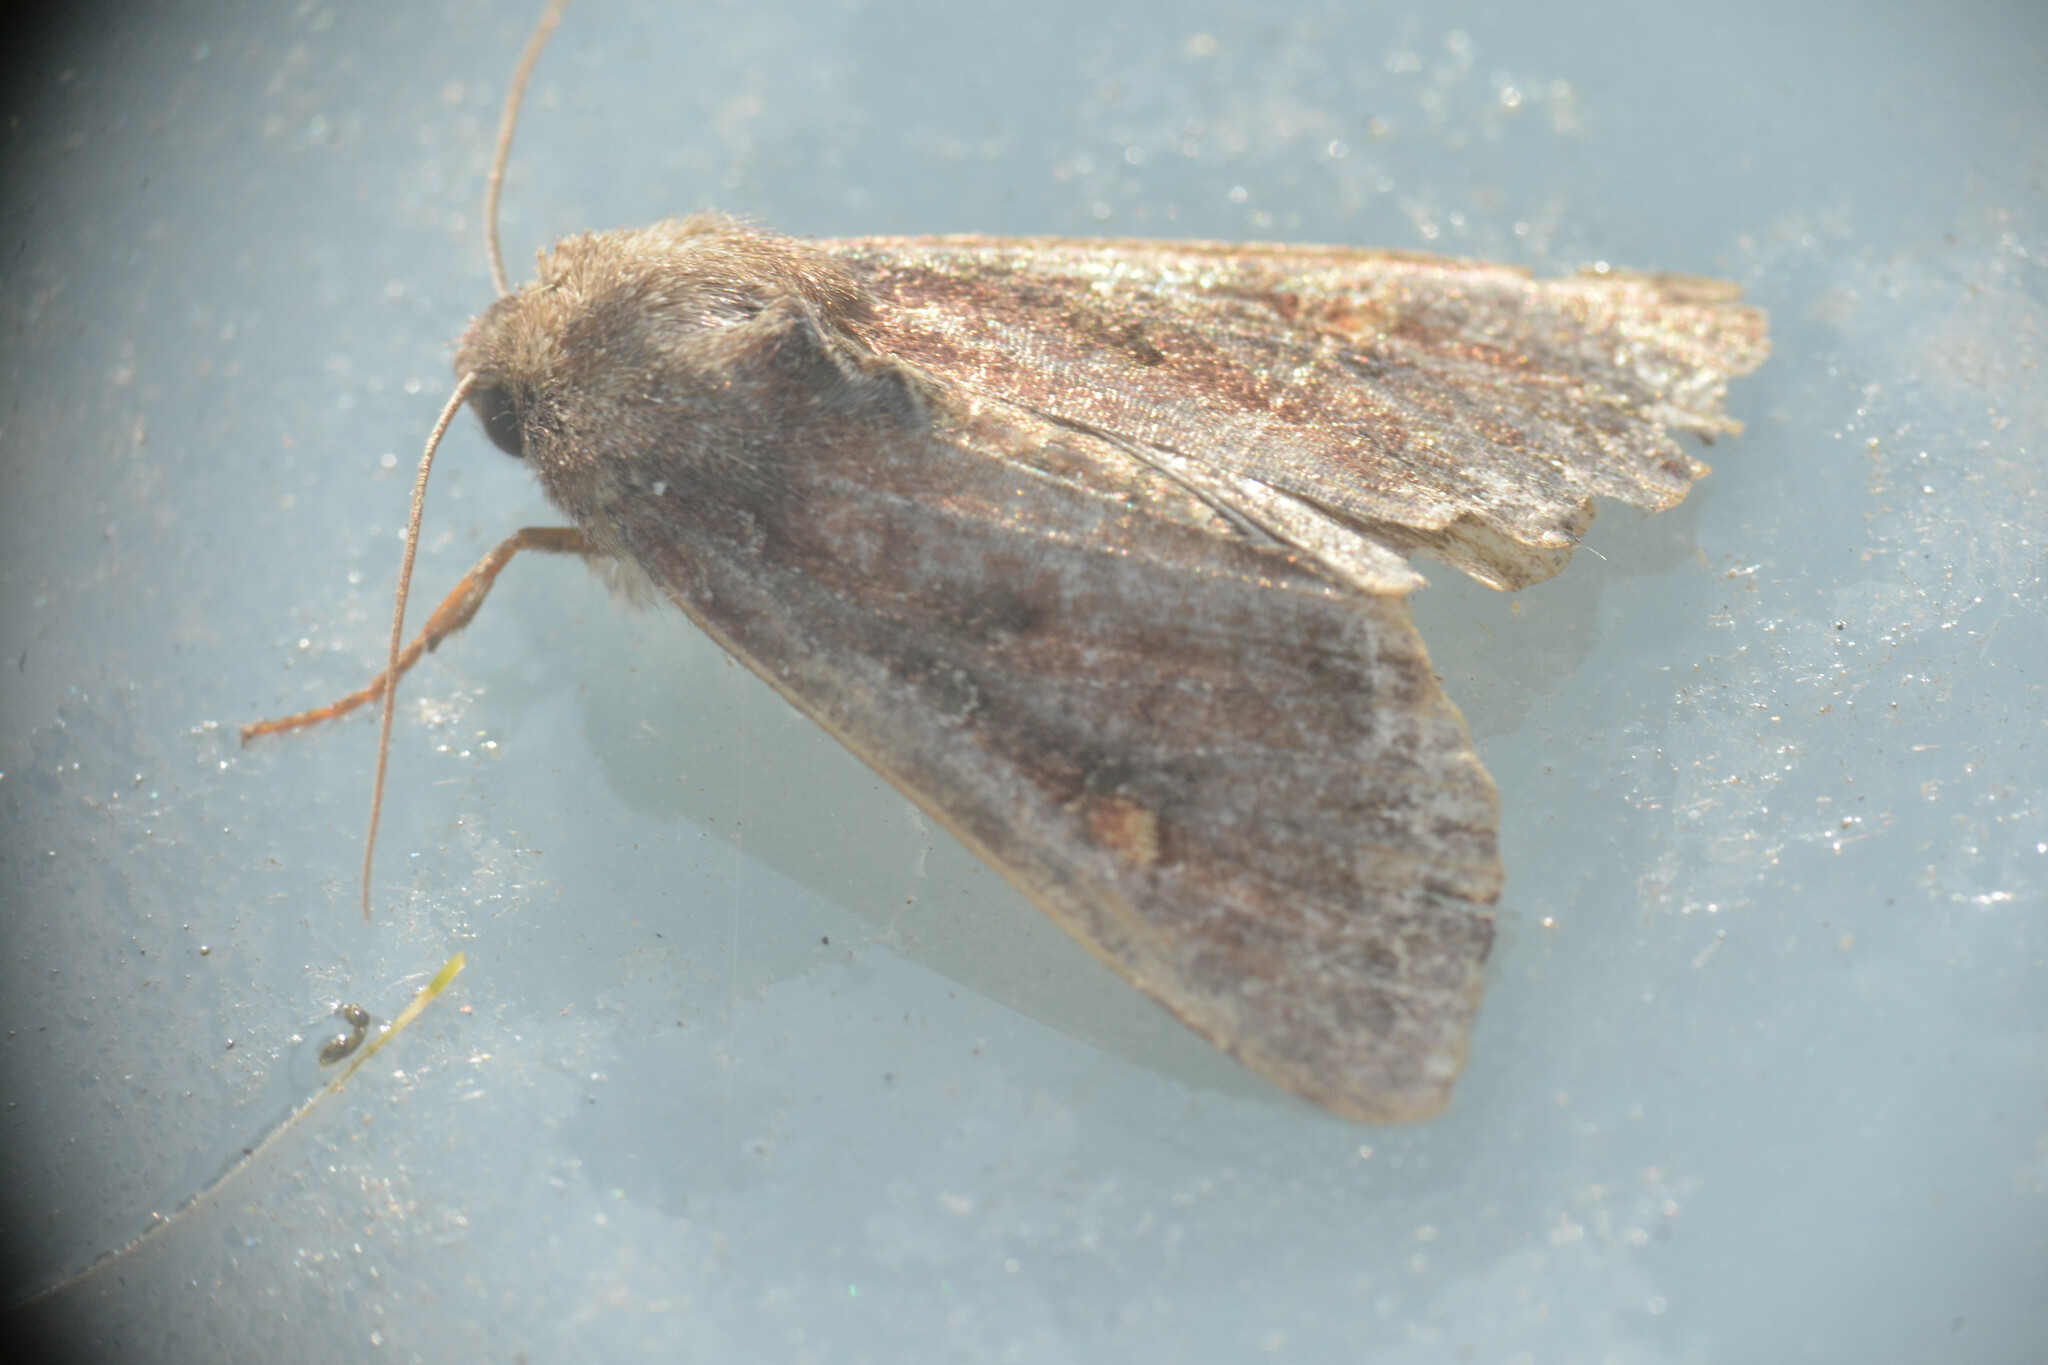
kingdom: Animalia
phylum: Arthropoda
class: Insecta
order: Lepidoptera
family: Noctuidae
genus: Lacanobia
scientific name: Lacanobia oleracea
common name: Bright-line brown-eye
